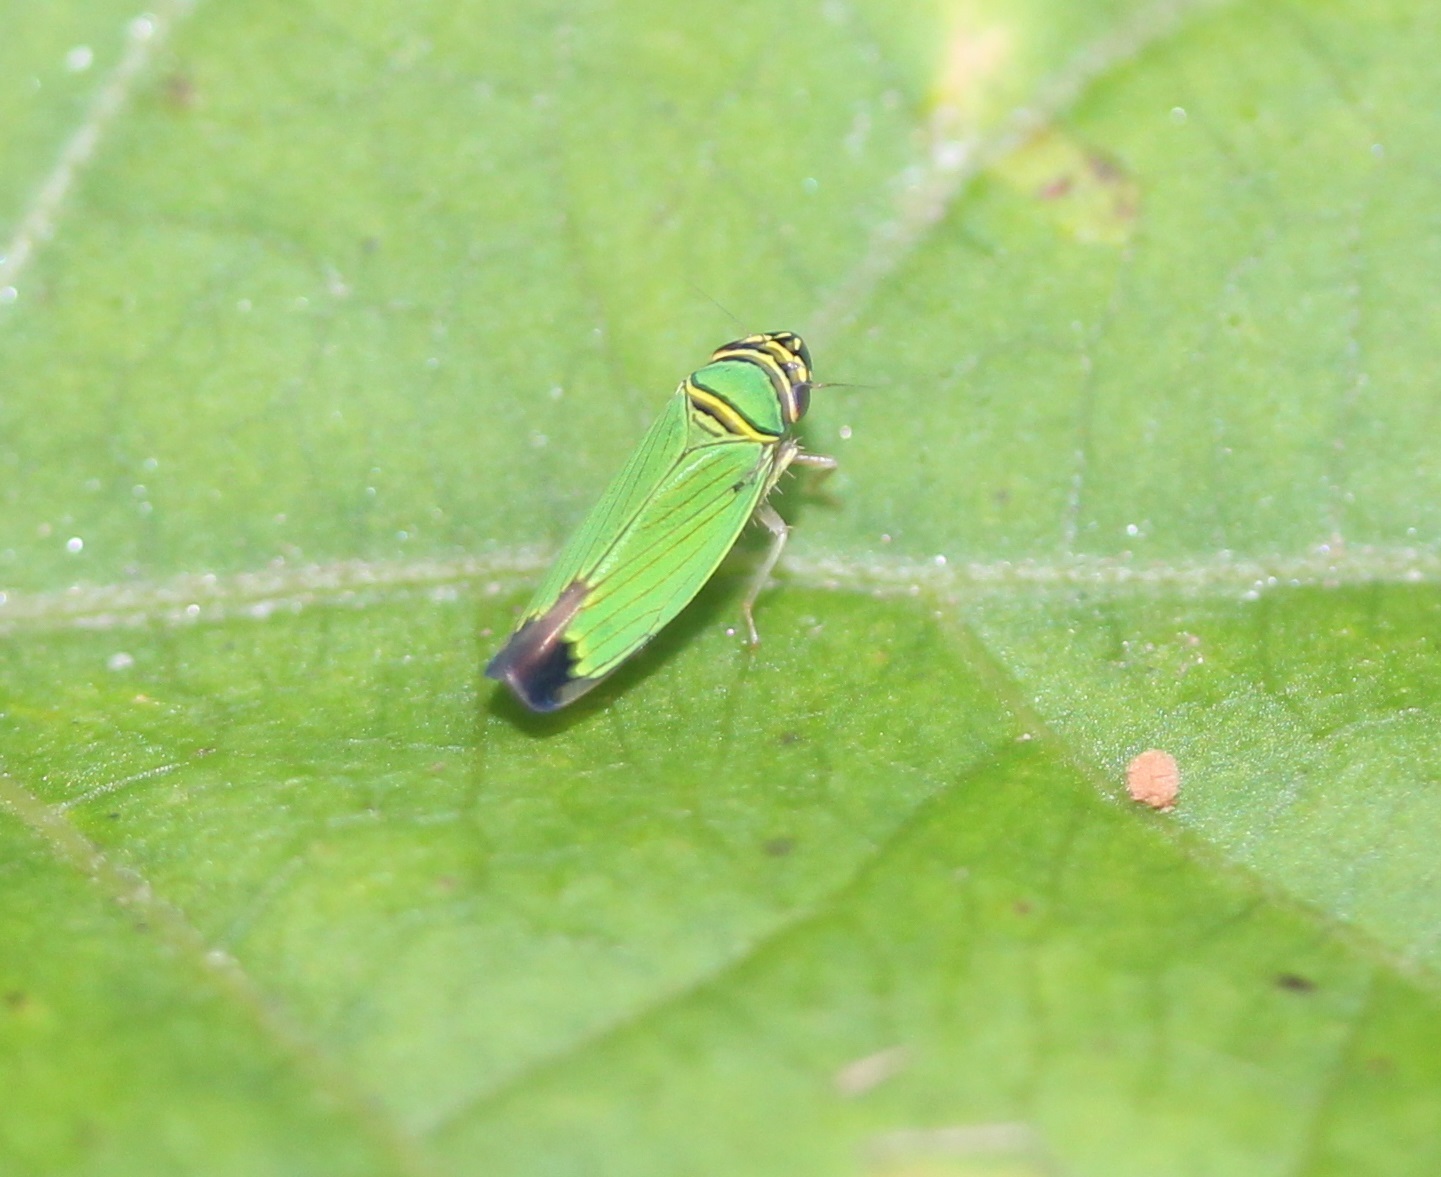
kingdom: Animalia
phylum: Arthropoda
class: Insecta
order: Hemiptera
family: Cicadellidae
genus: Tylozygus
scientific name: Tylozygus geometricus
